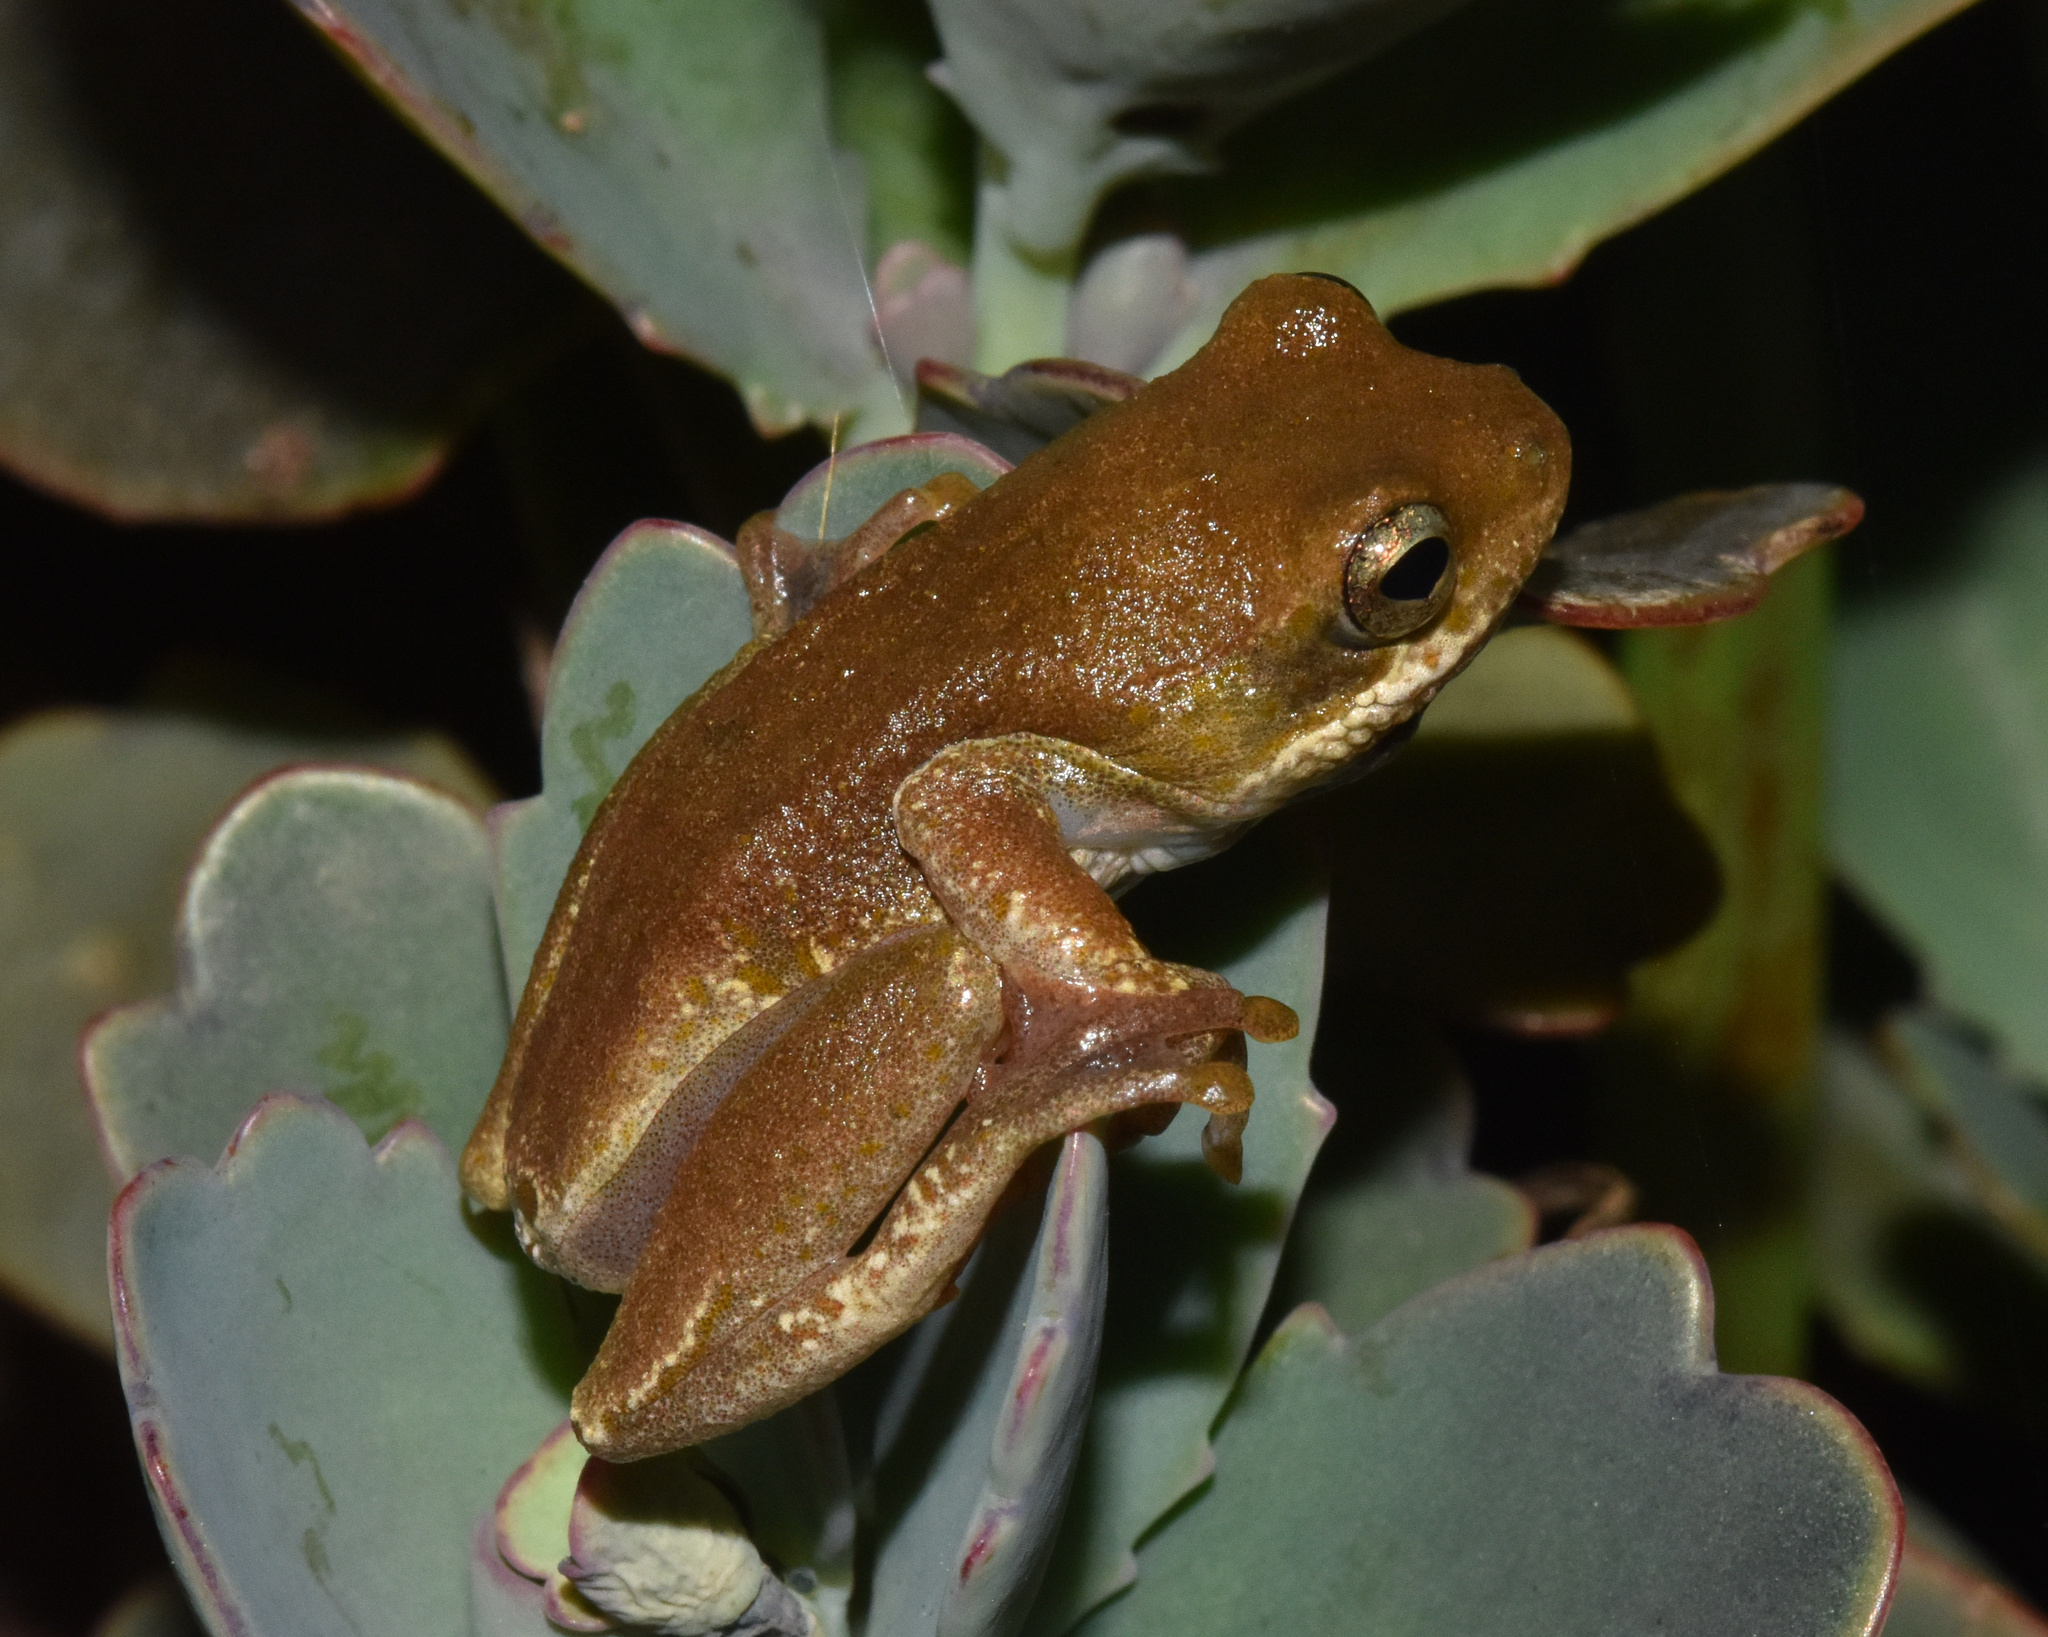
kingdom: Animalia
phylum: Chordata
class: Amphibia
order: Anura
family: Hyperoliidae
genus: Hyperolius
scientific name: Hyperolius marmoratus
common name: Painted reed frog
